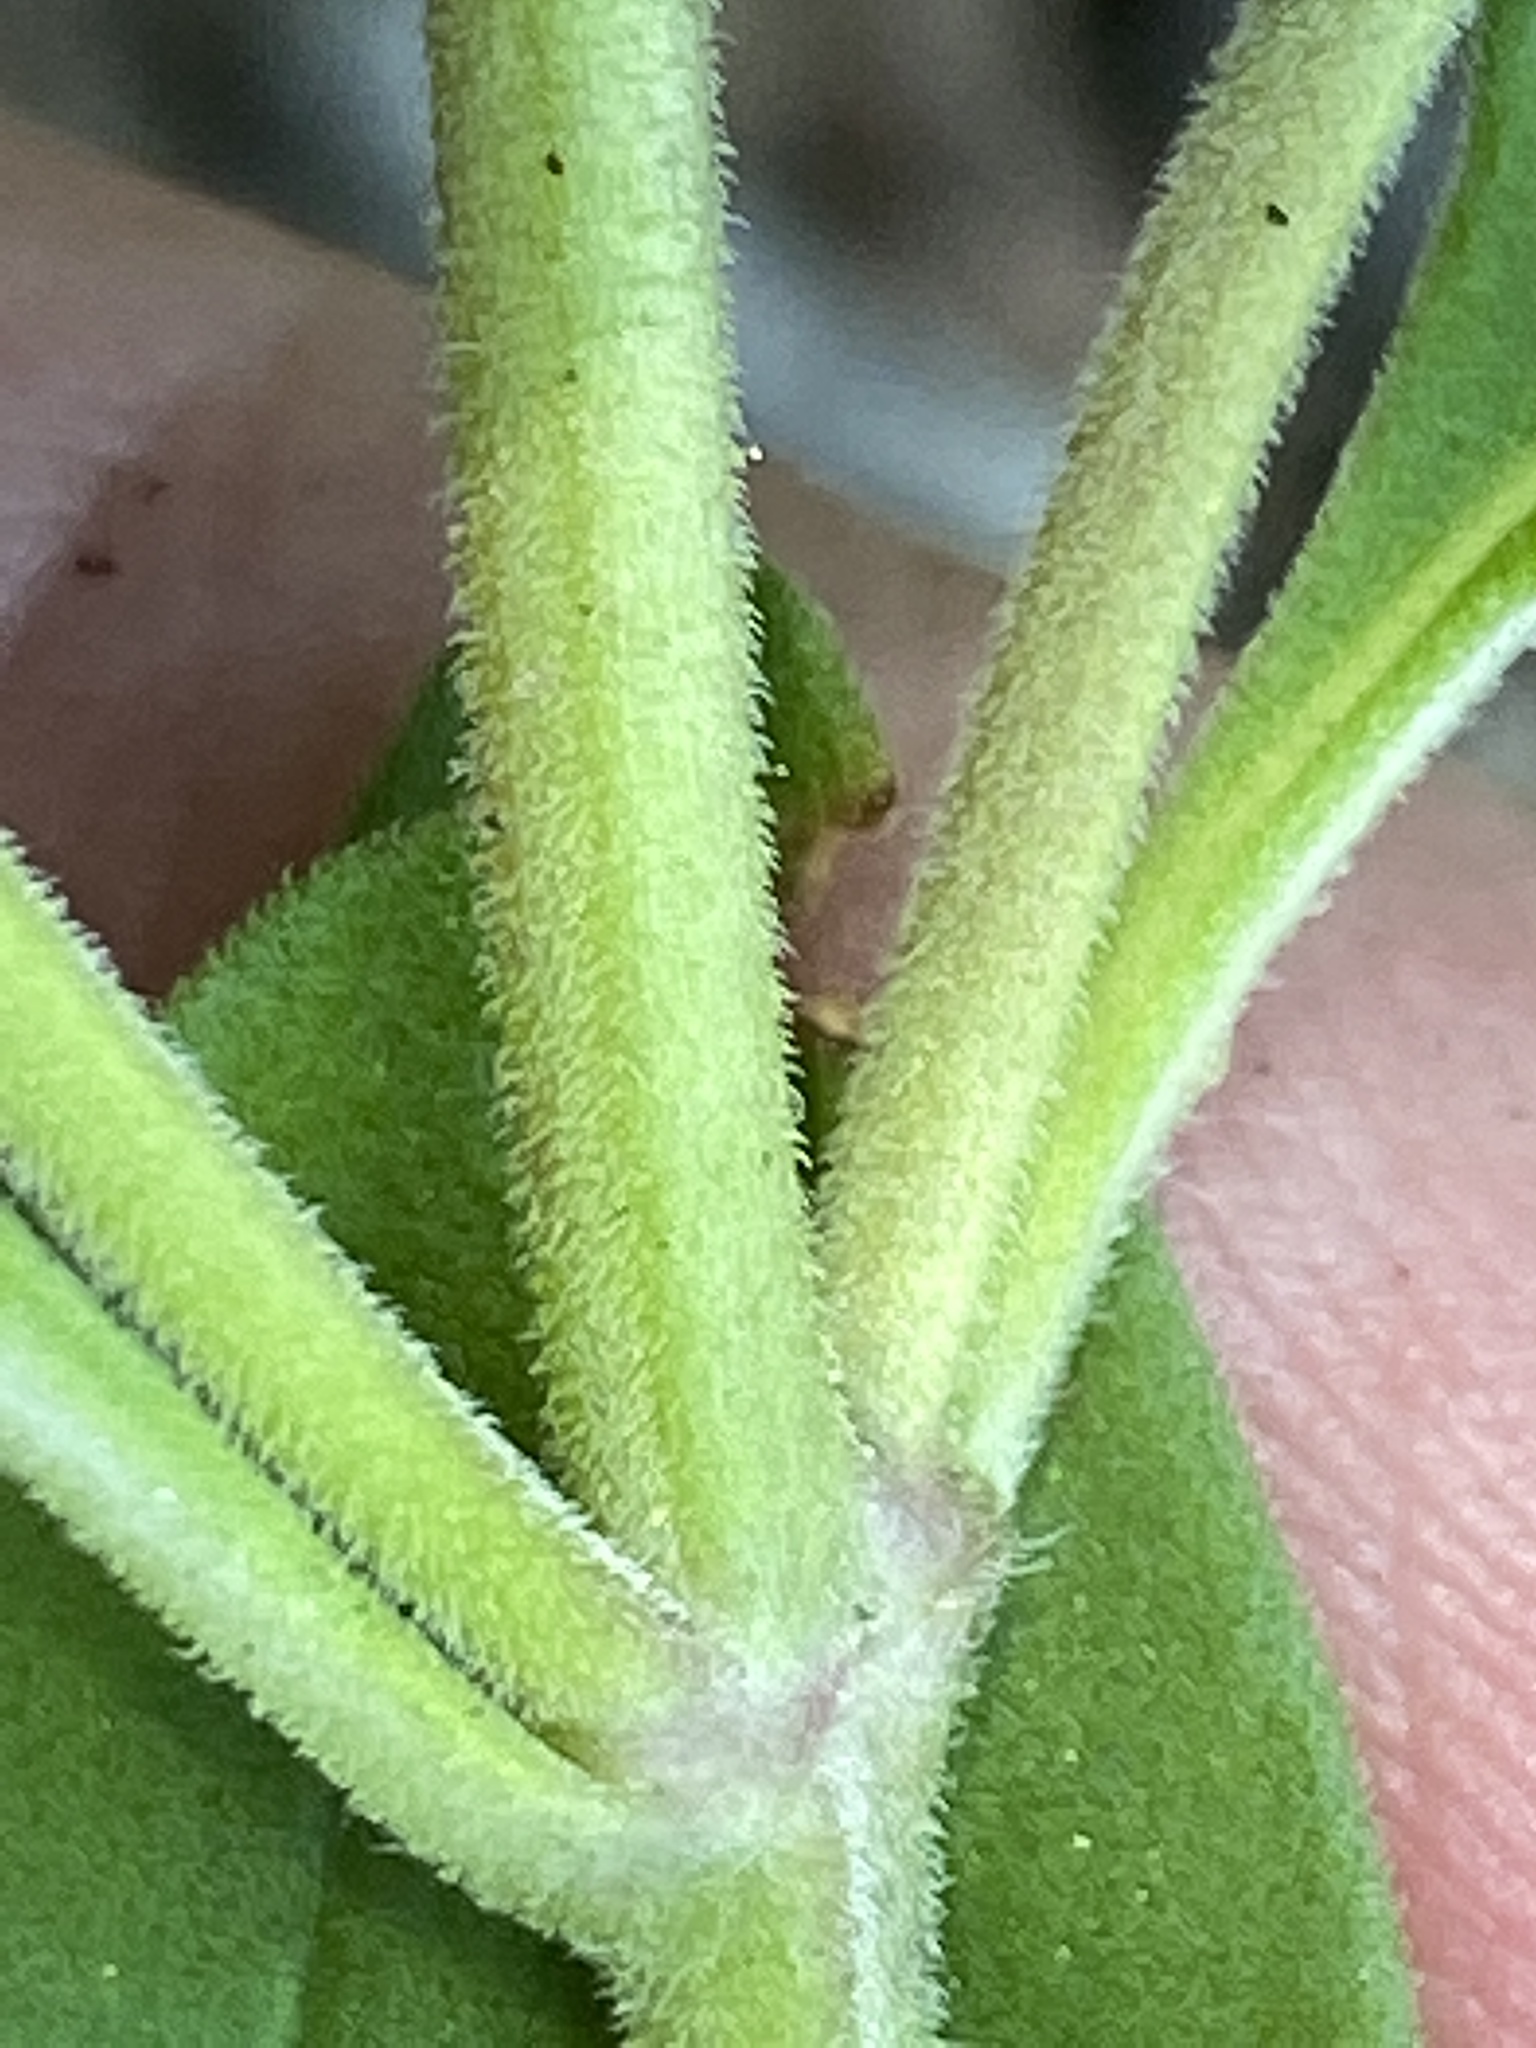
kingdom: Plantae
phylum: Tracheophyta
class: Magnoliopsida
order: Lamiales
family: Lamiaceae
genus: Trichostema
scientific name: Trichostema dichotomum
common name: Bastard pennyroyal
